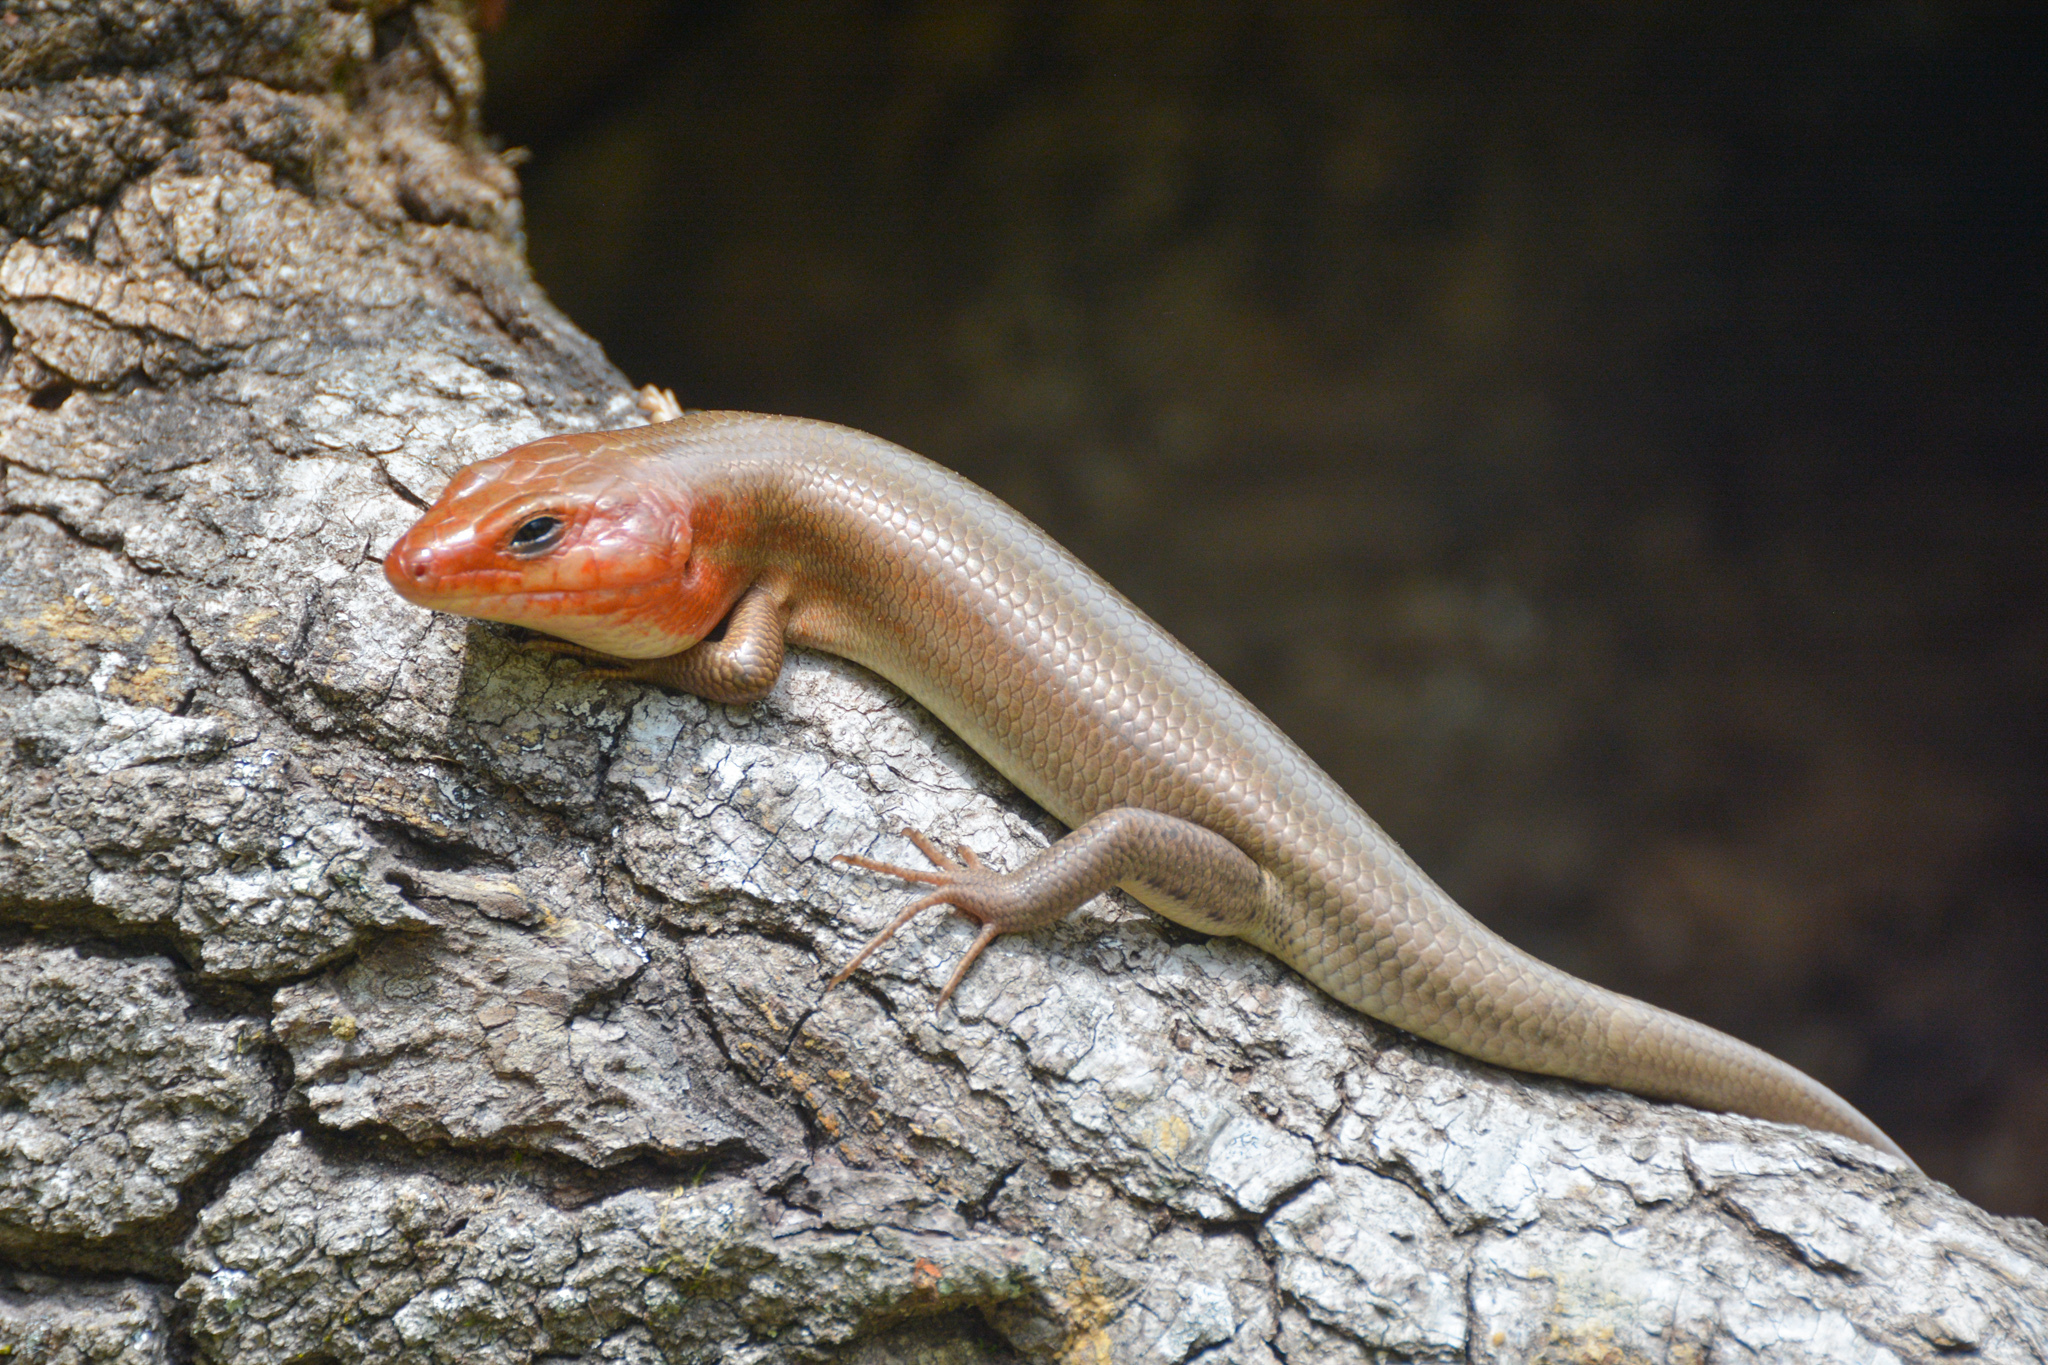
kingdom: Animalia
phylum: Chordata
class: Squamata
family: Scincidae
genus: Plestiodon
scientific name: Plestiodon laticeps
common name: Broadhead skink
